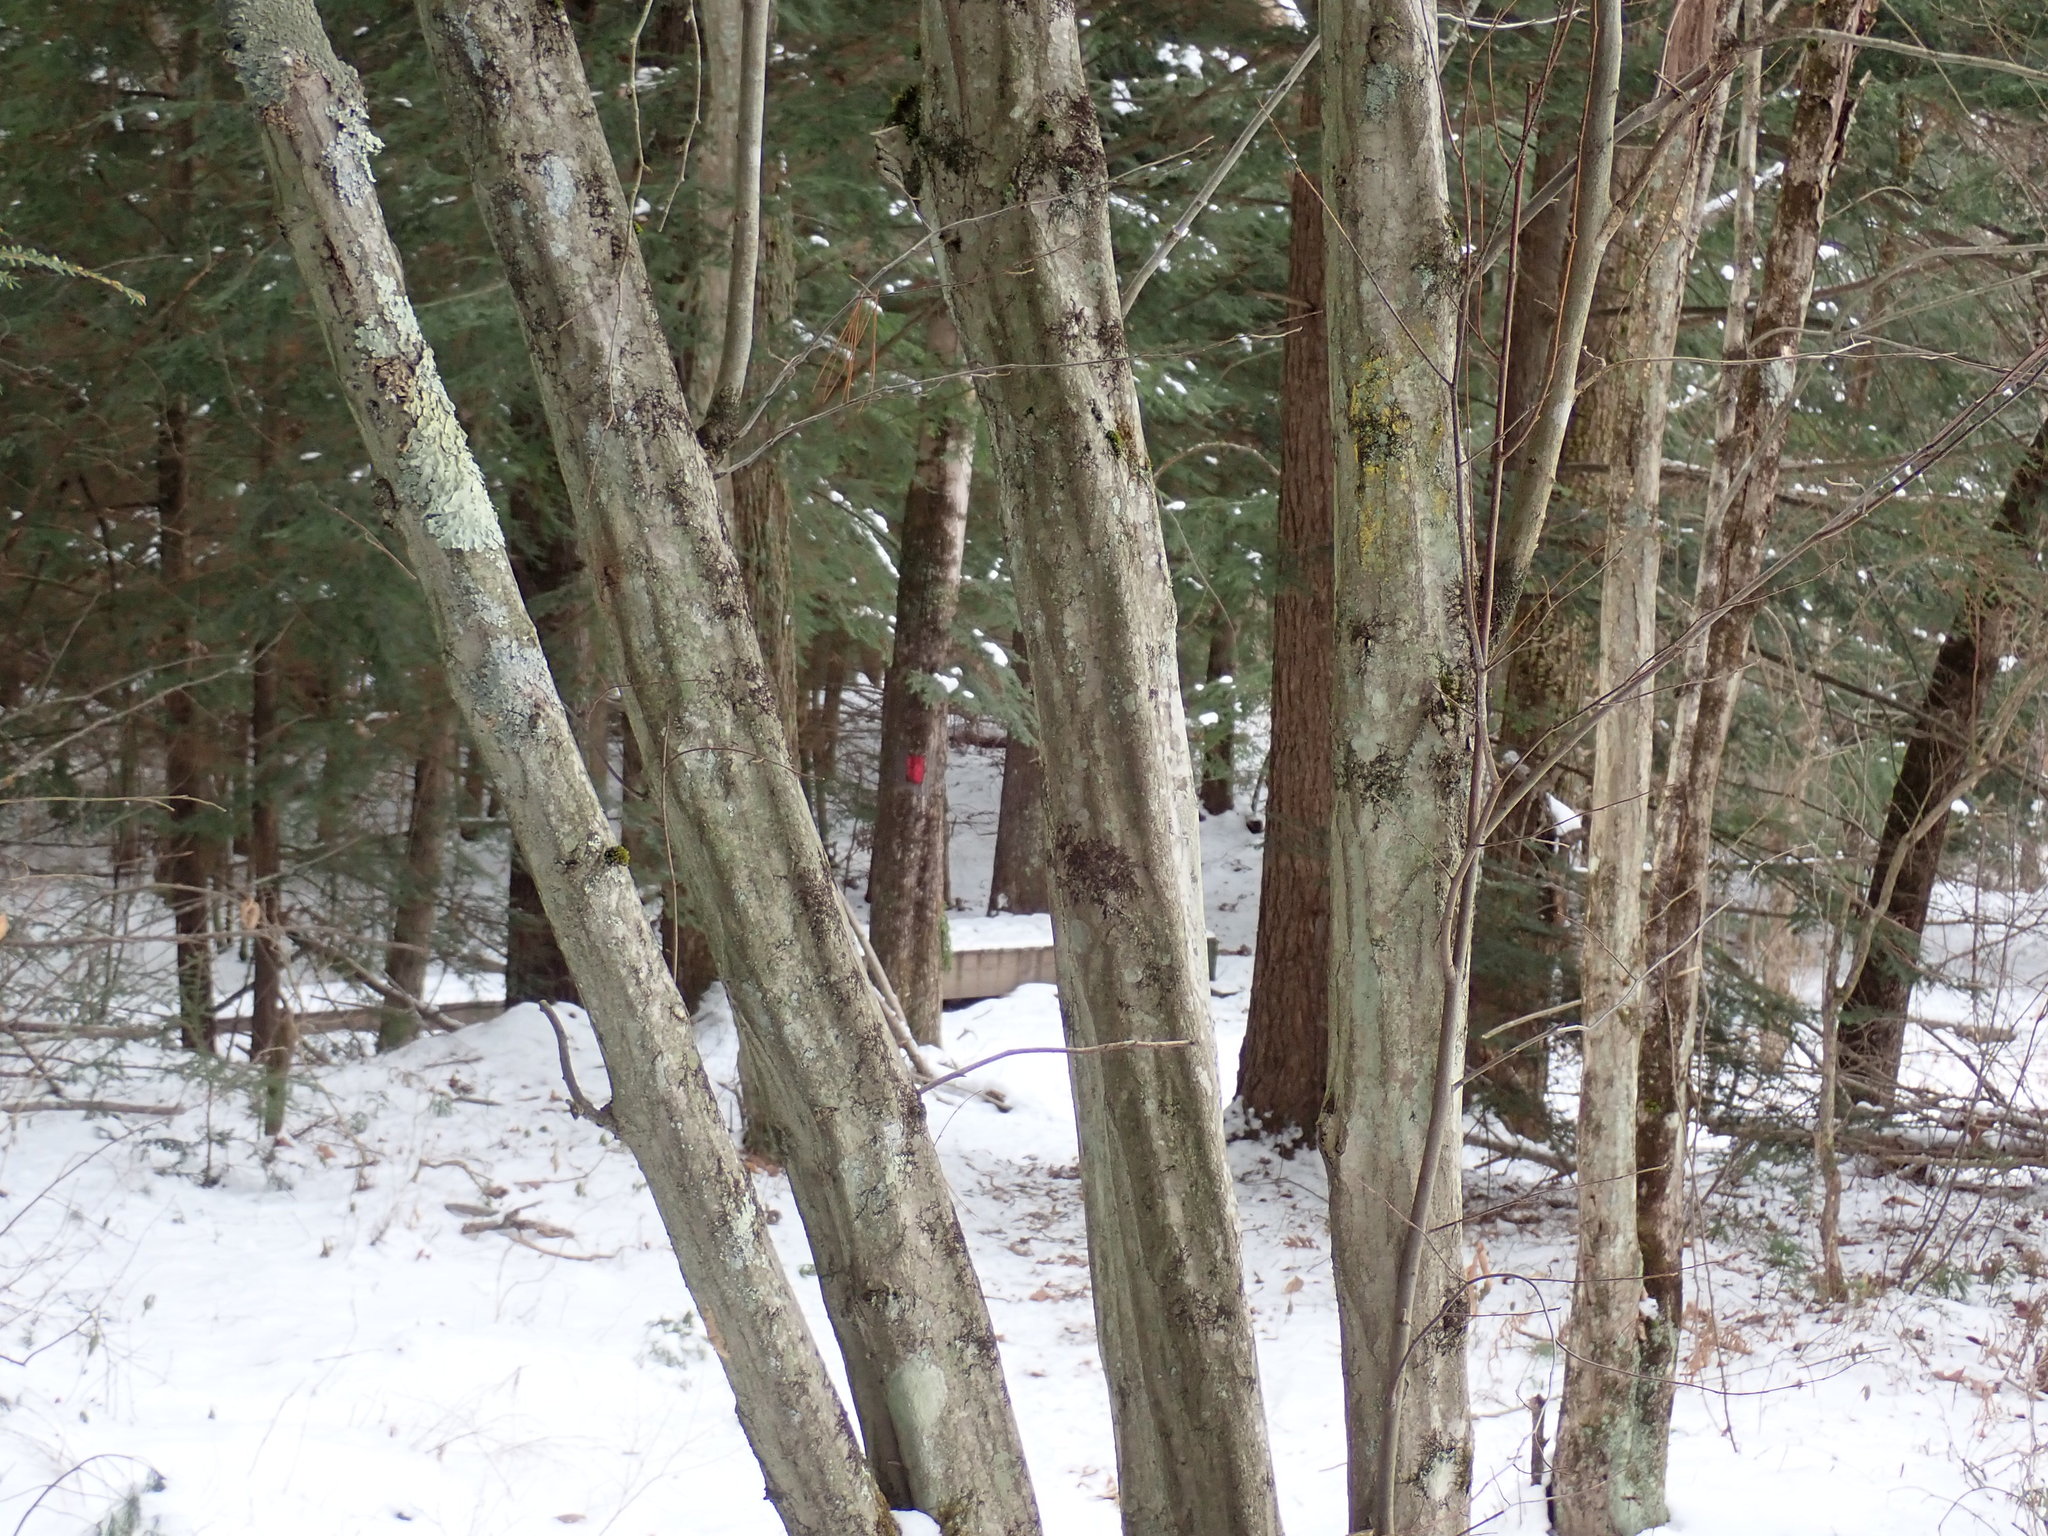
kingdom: Plantae
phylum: Tracheophyta
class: Magnoliopsida
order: Fagales
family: Betulaceae
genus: Carpinus
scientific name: Carpinus caroliniana
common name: American hornbeam
